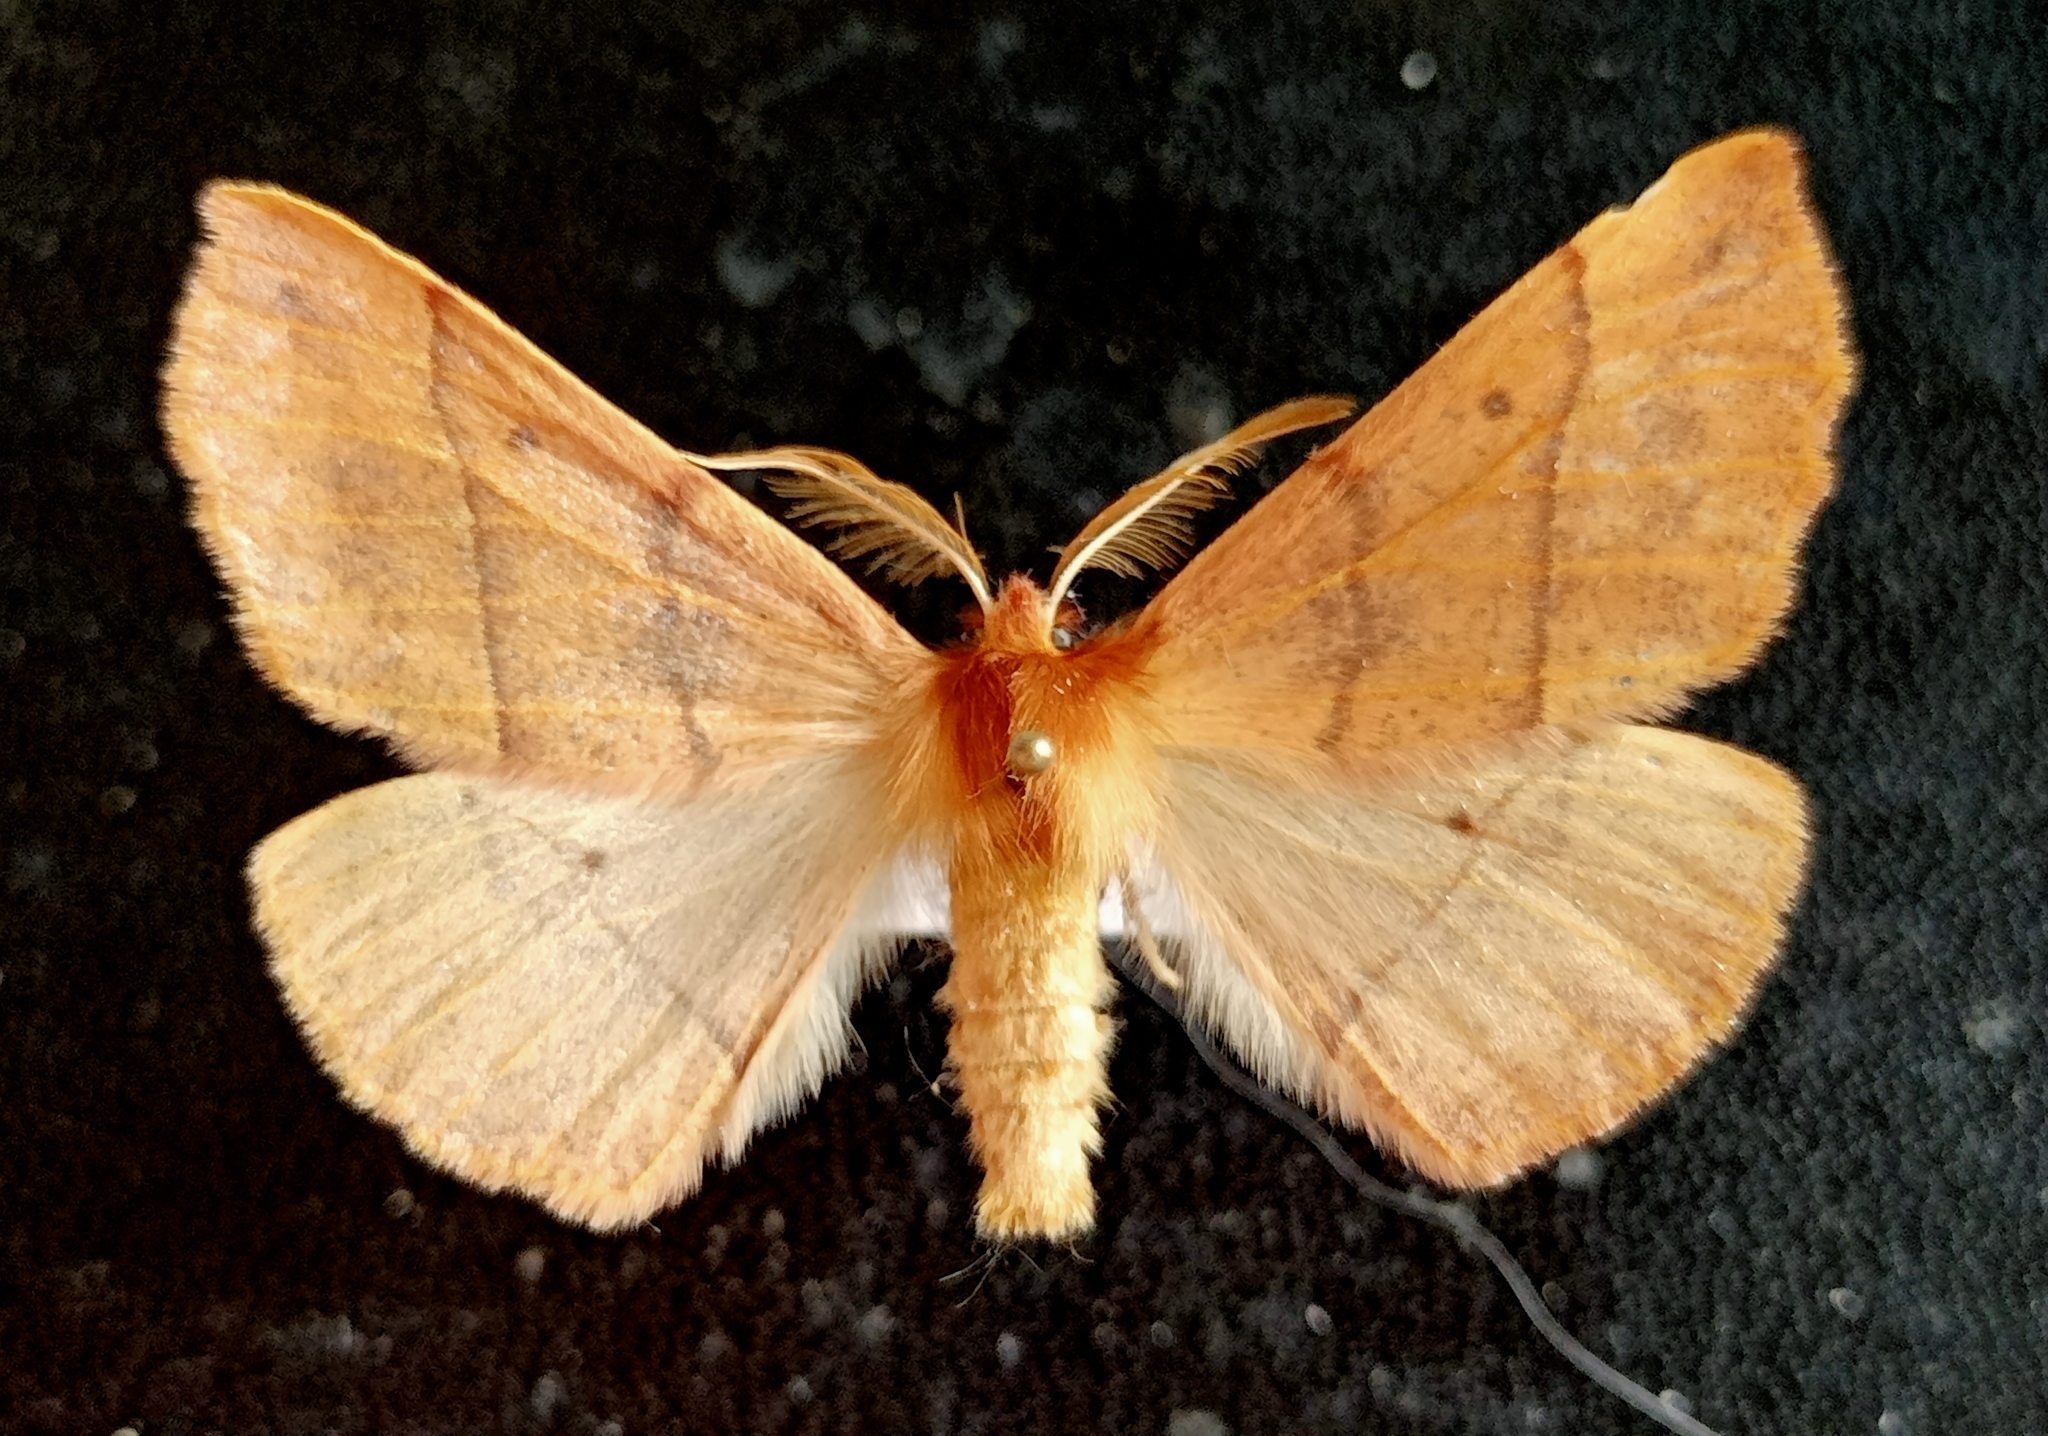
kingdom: Animalia
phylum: Arthropoda
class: Insecta
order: Lepidoptera
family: Geometridae
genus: Colotois
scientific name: Colotois pennaria
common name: Feathered thorn
